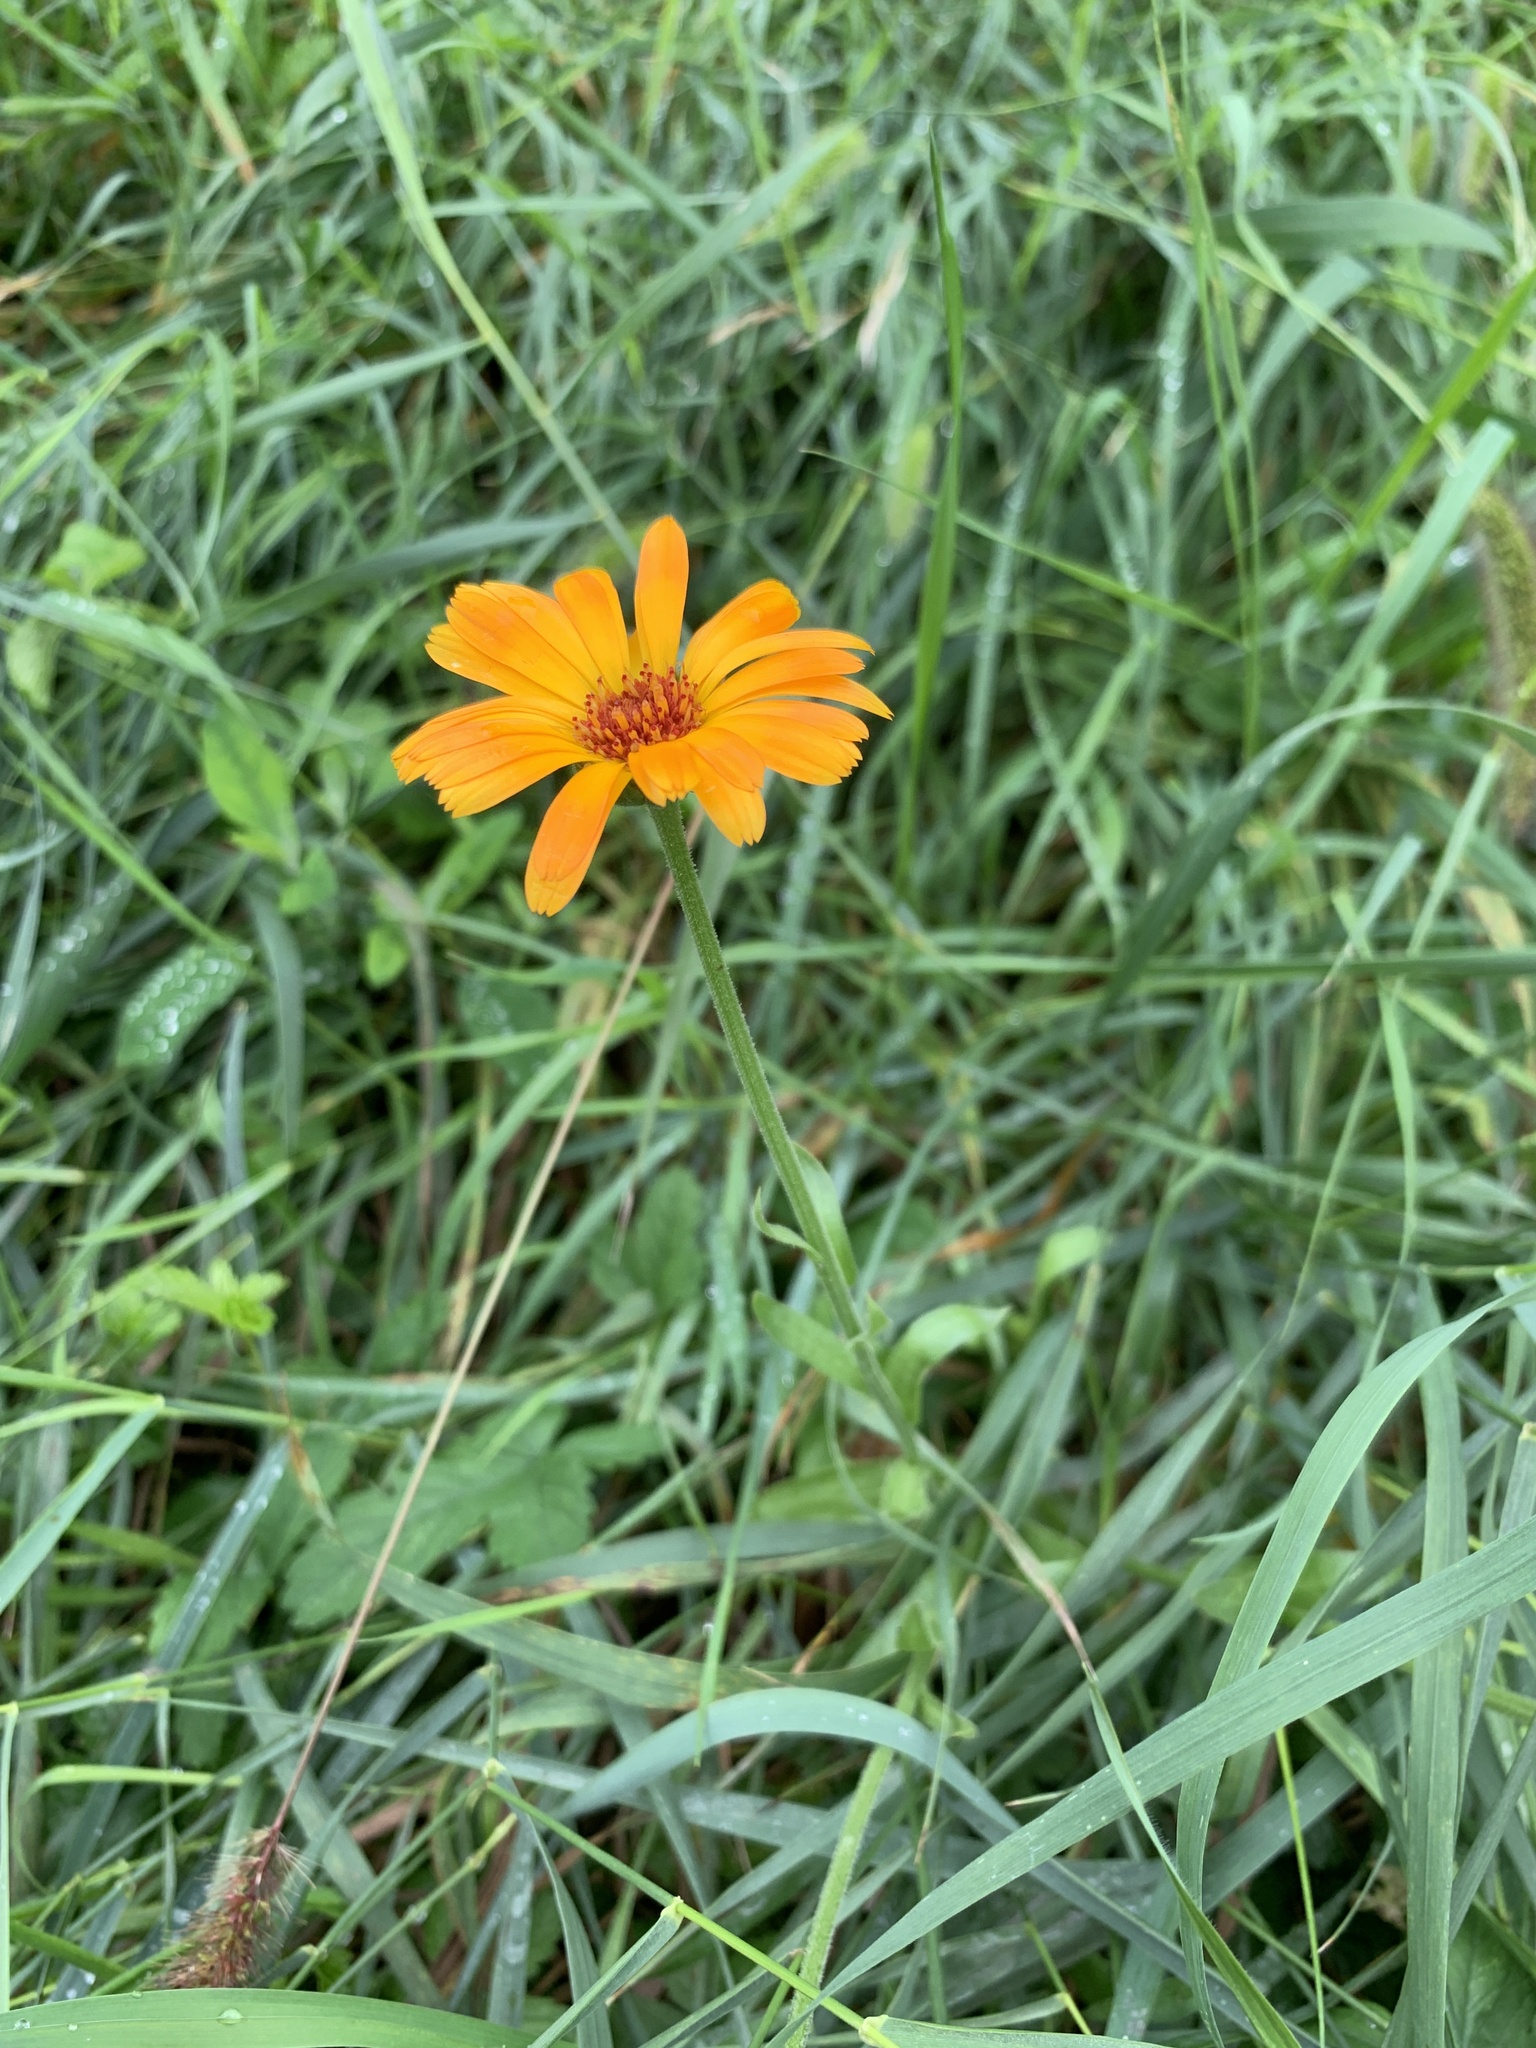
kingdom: Plantae
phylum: Tracheophyta
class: Magnoliopsida
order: Asterales
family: Asteraceae
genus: Calendula
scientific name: Calendula officinalis
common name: Pot marigold
